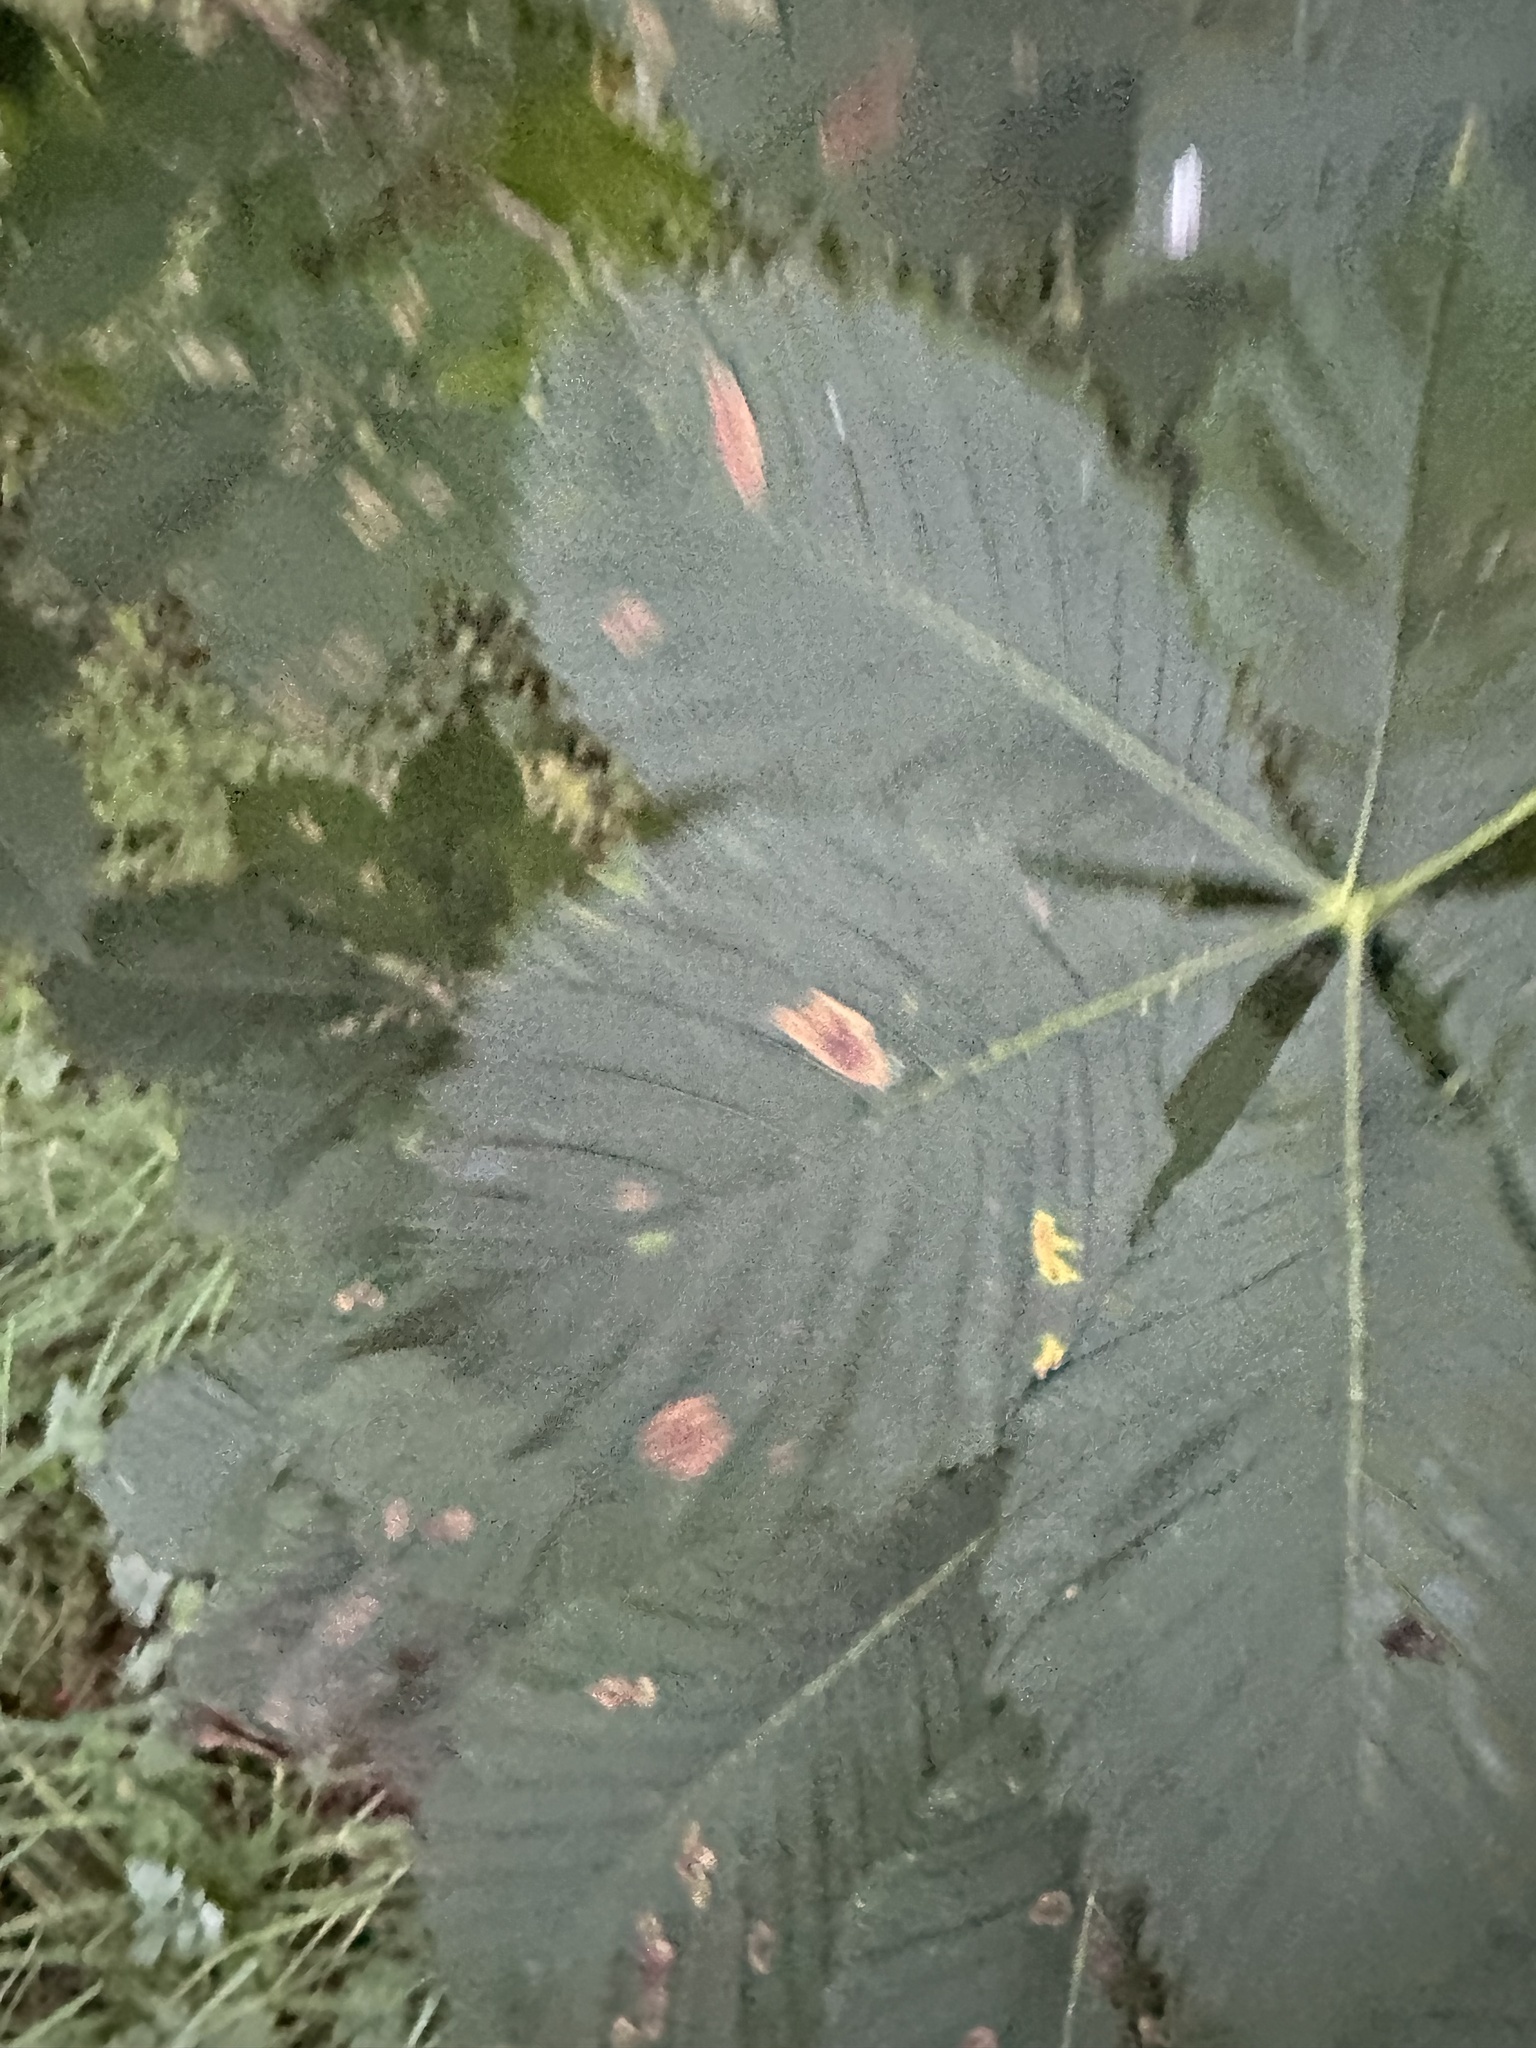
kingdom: Animalia
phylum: Arthropoda
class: Insecta
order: Lepidoptera
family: Gracillariidae
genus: Cameraria
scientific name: Cameraria ohridella
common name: Horse-chestnut leaf-miner
